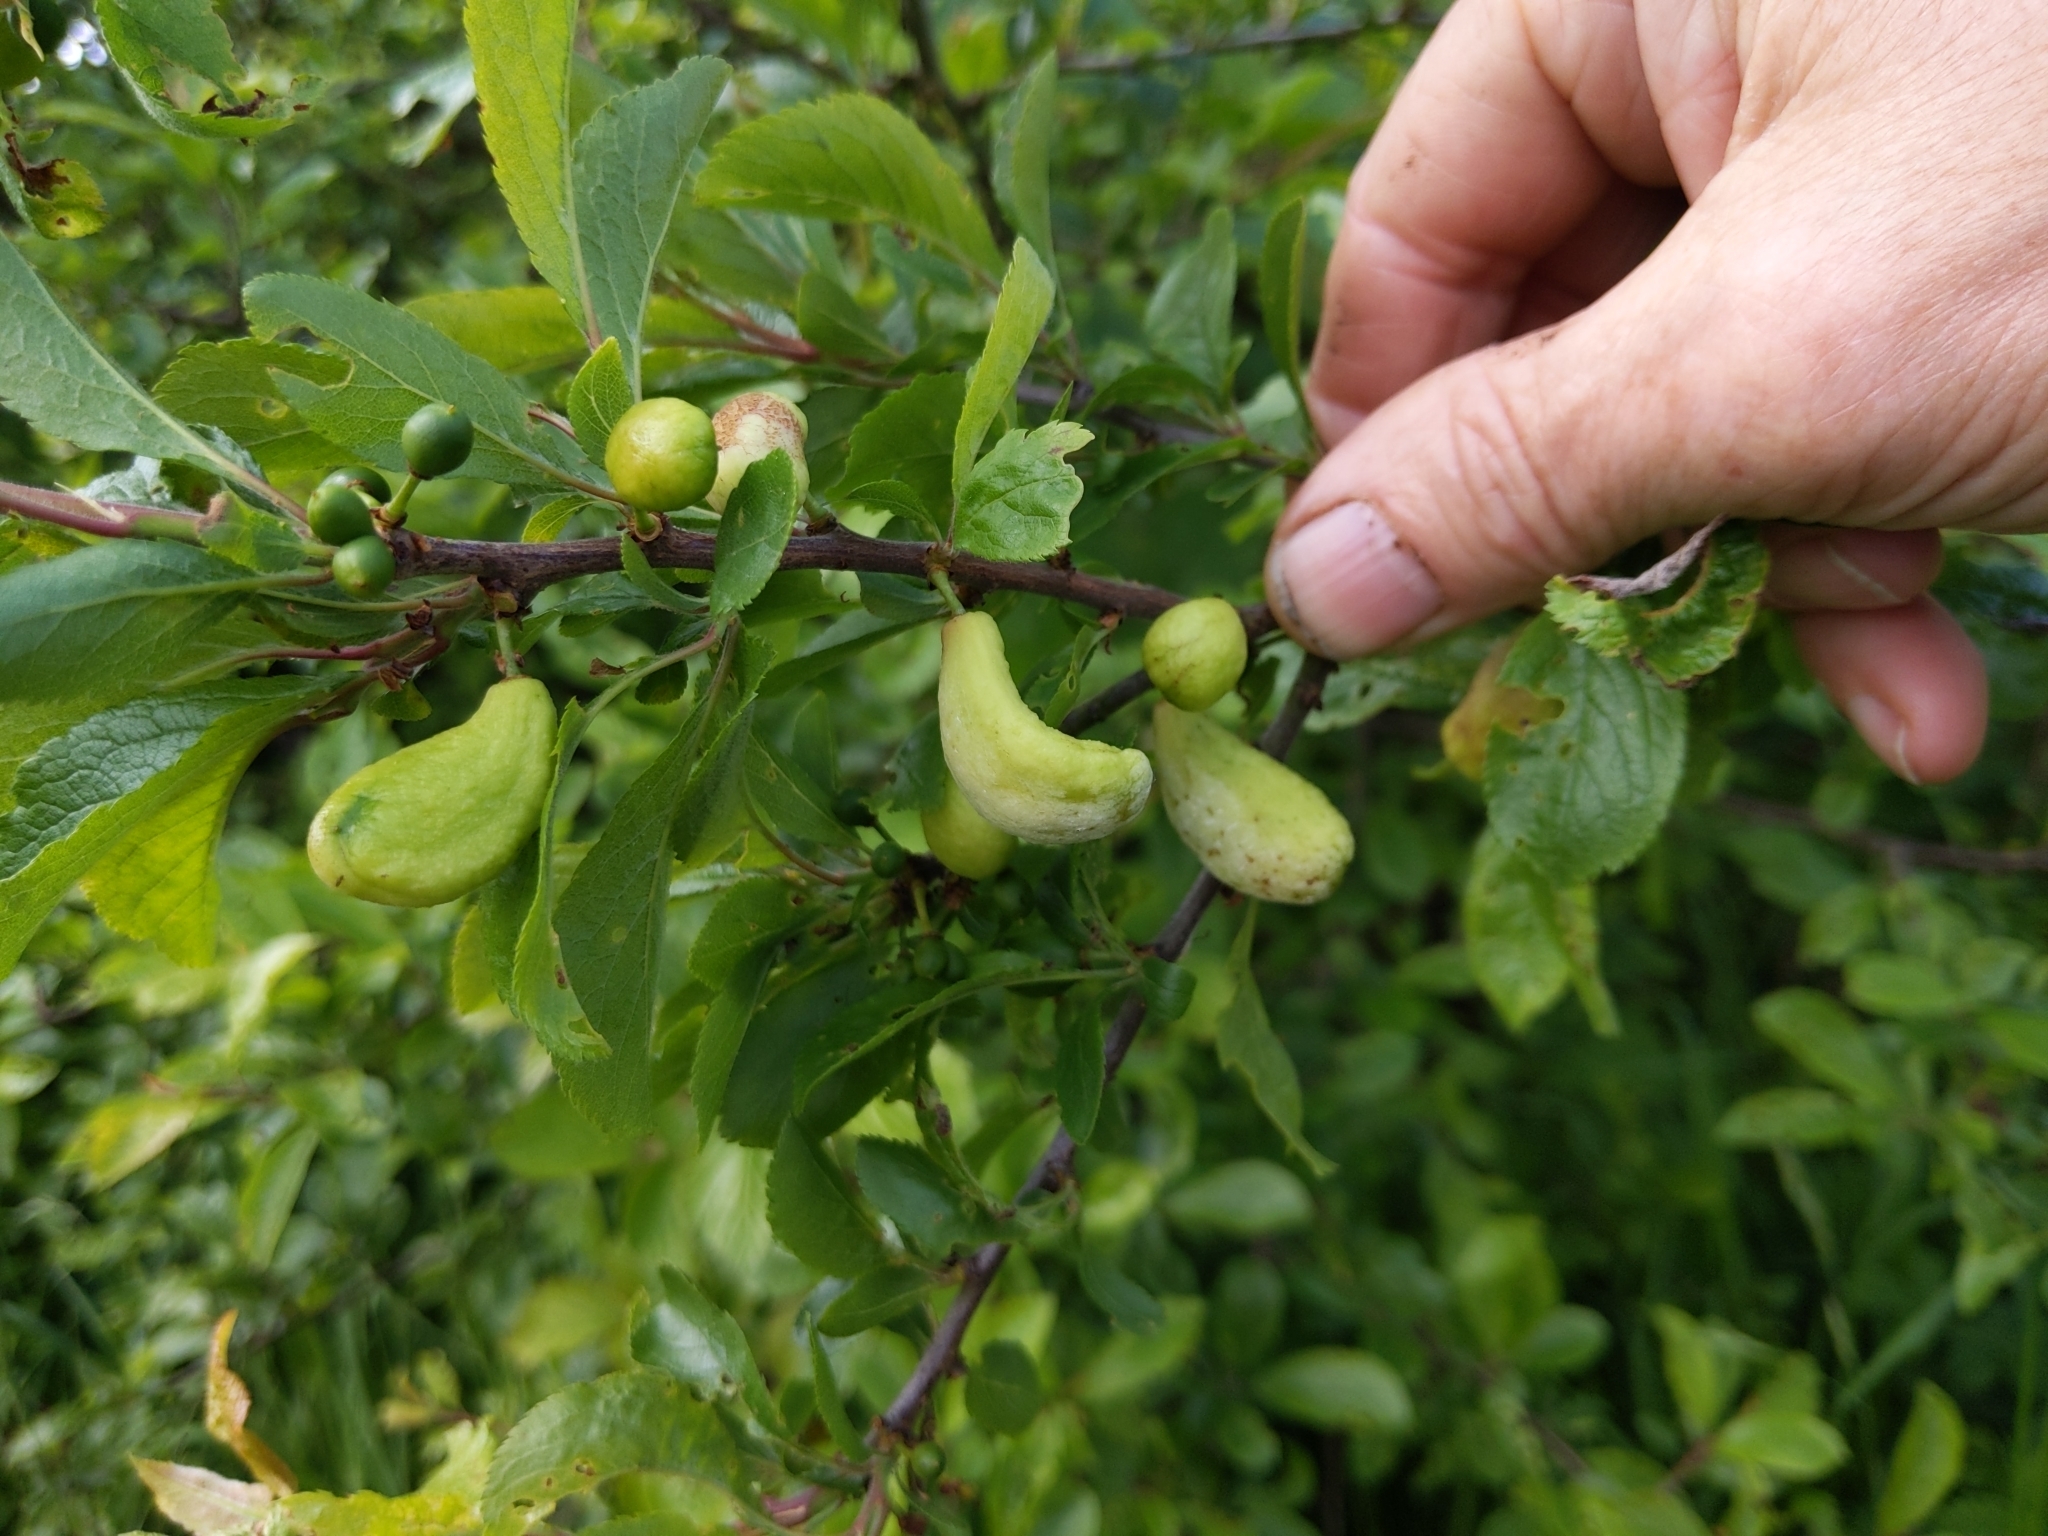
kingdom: Fungi
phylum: Ascomycota
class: Taphrinomycetes
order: Taphrinales
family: Taphrinaceae
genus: Taphrina
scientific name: Taphrina pruni
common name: Pocket plum
